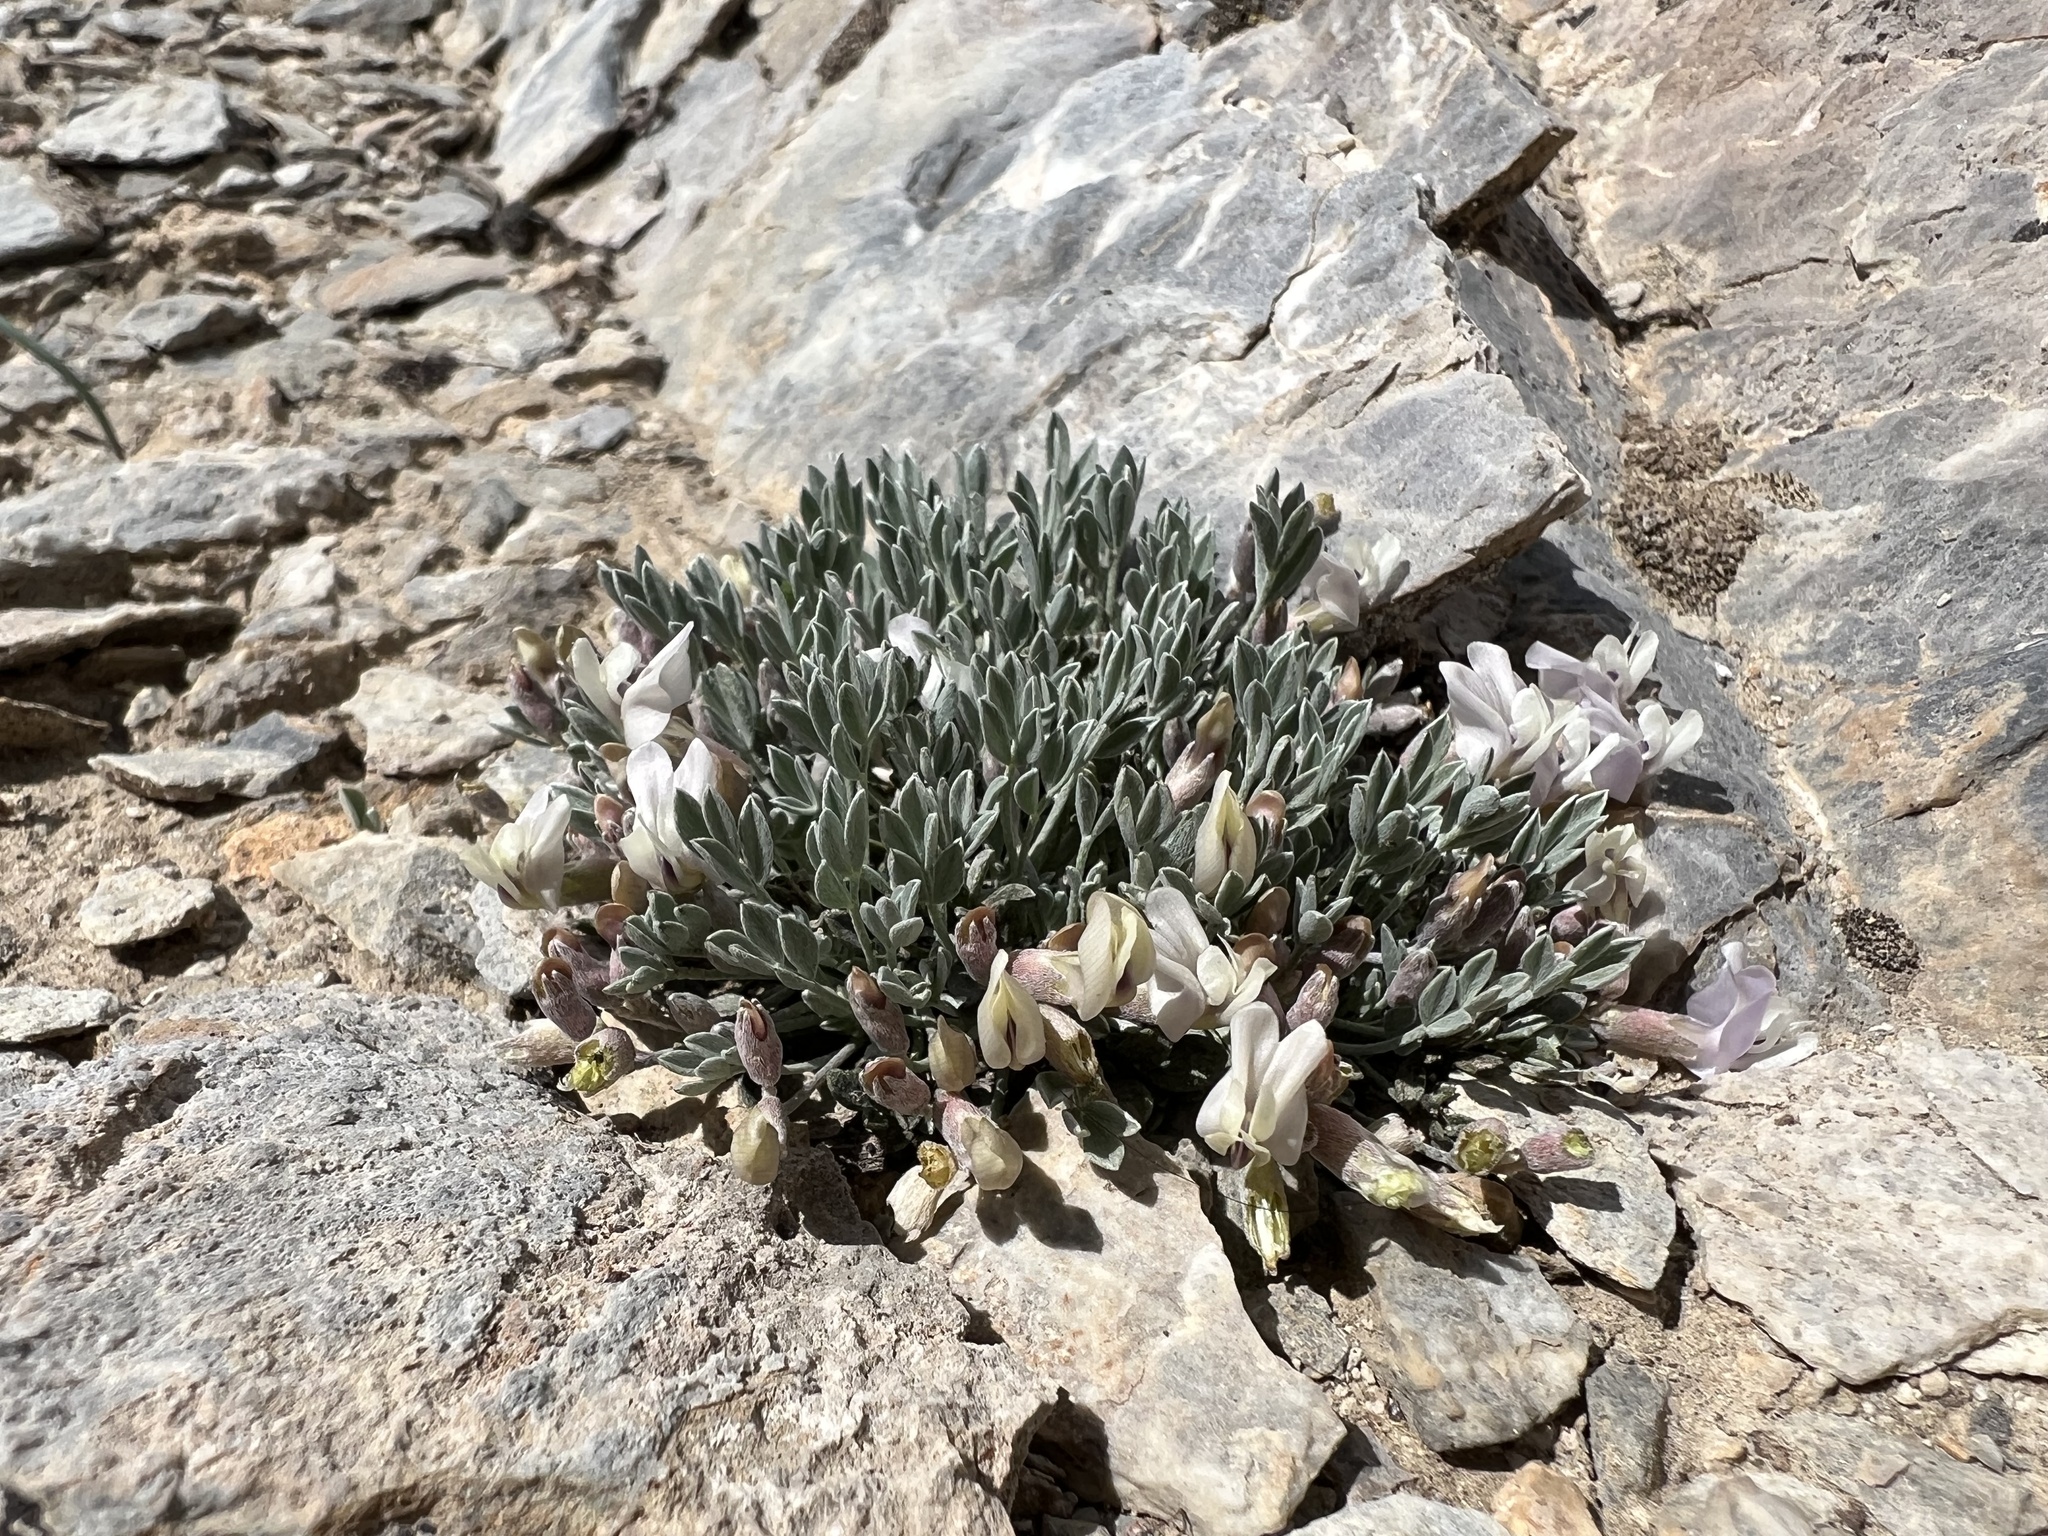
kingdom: Plantae
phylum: Tracheophyta
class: Magnoliopsida
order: Fabales
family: Fabaceae
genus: Astragalus
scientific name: Astragalus calycosus
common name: King's milkvetch
